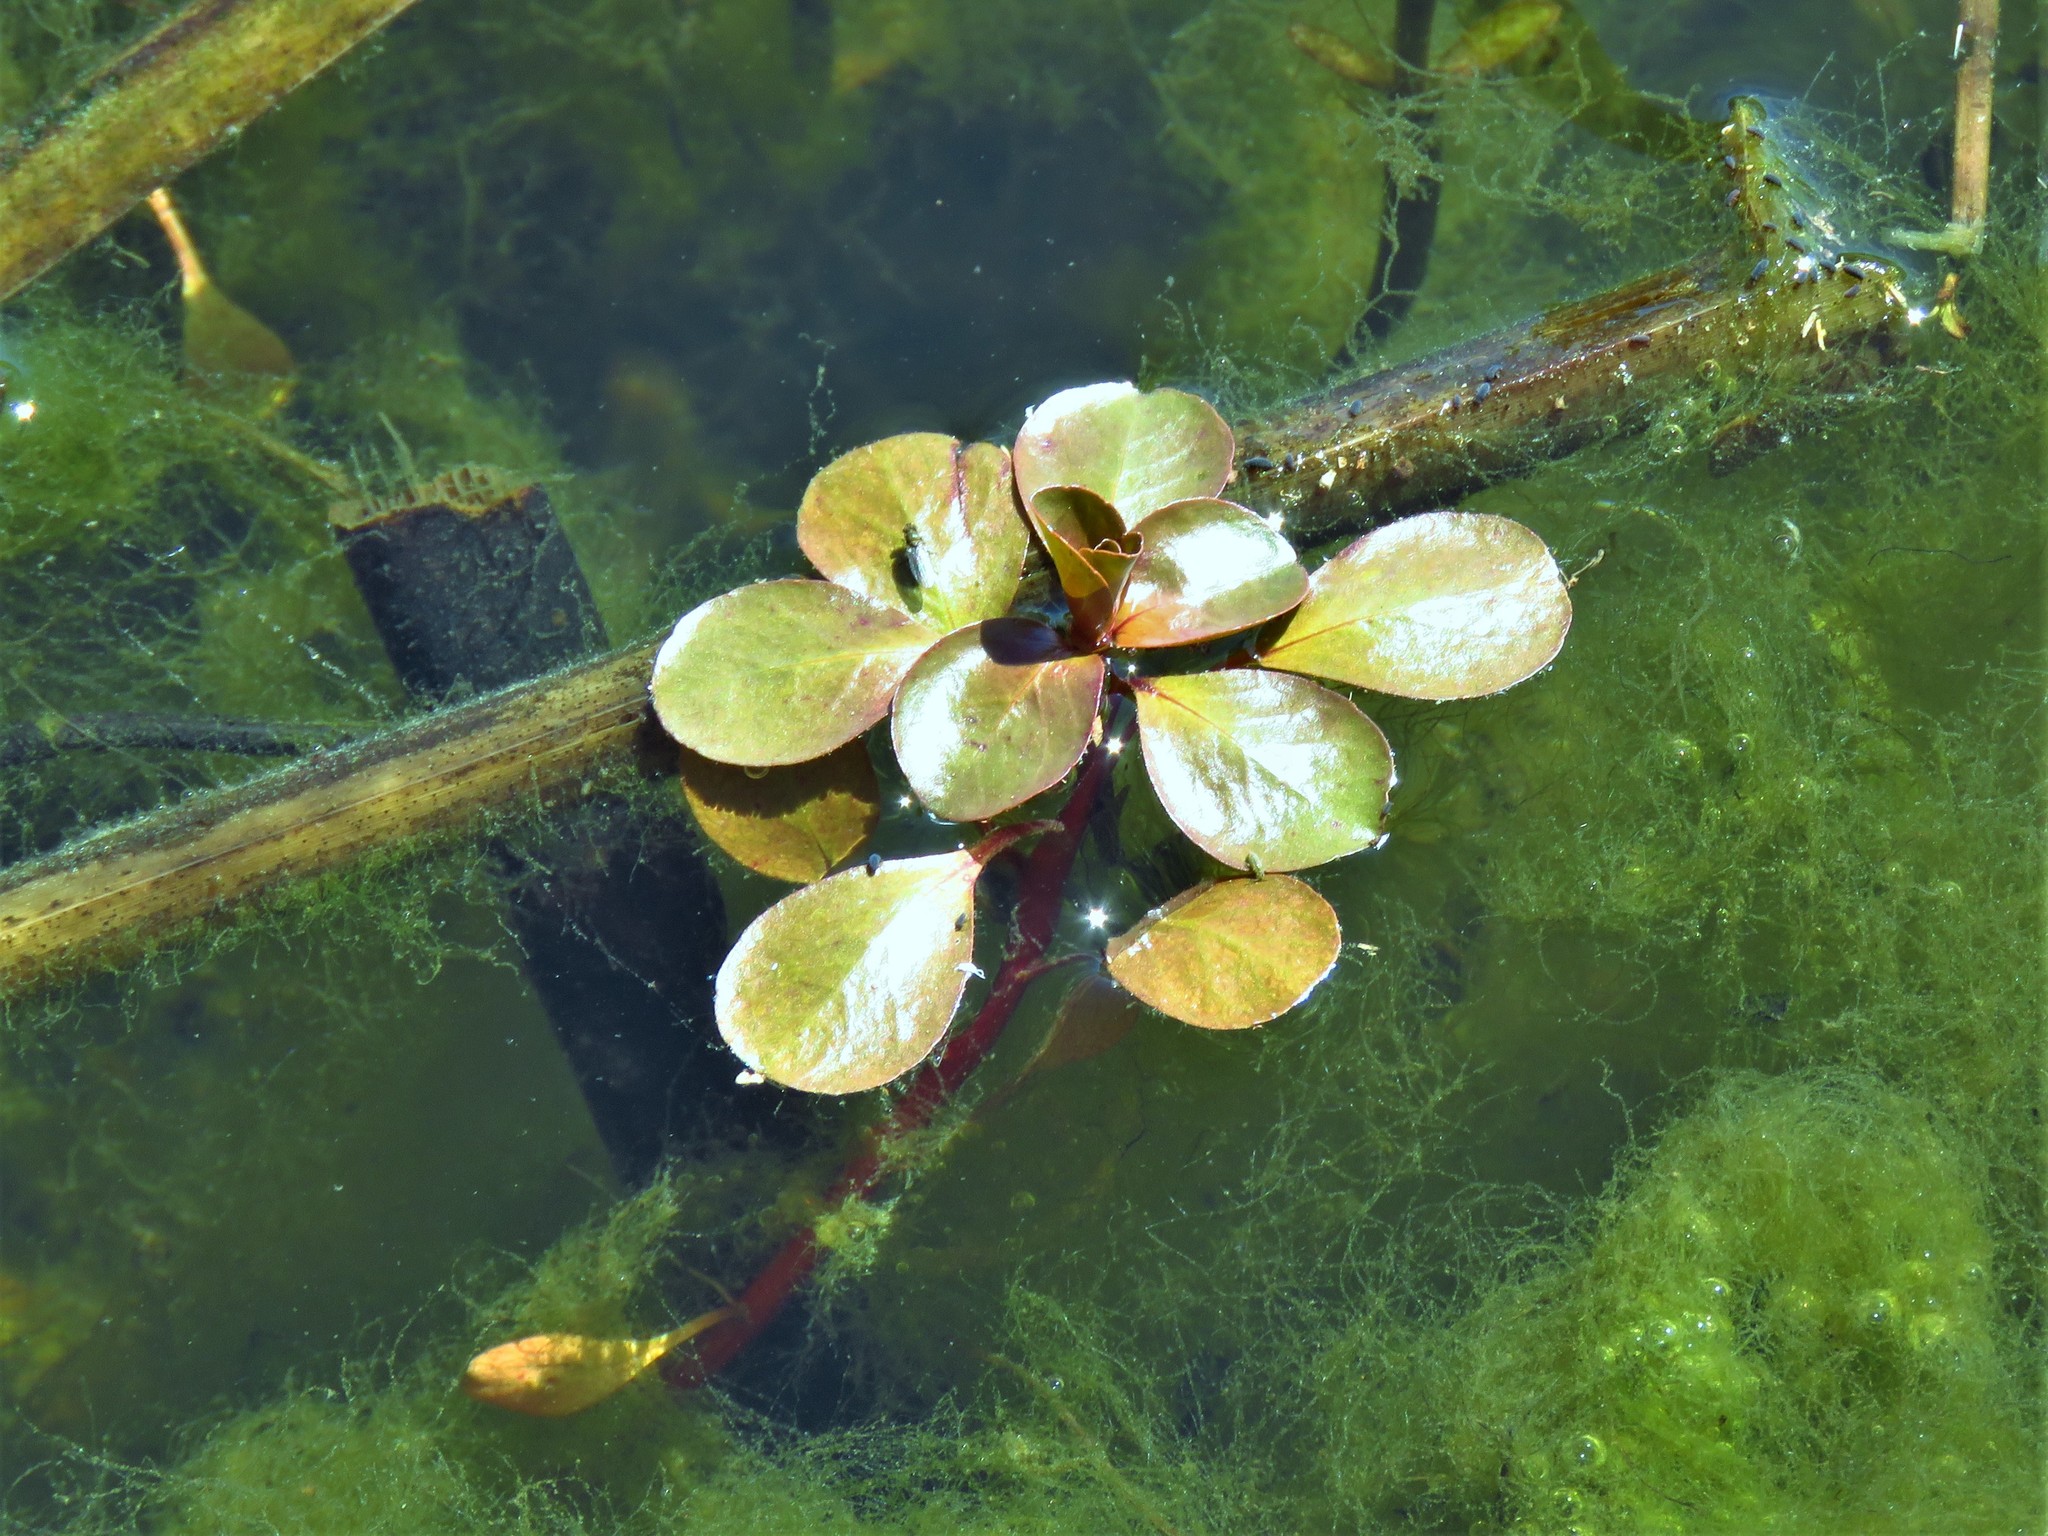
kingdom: Plantae
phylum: Tracheophyta
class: Magnoliopsida
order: Myrtales
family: Onagraceae
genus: Ludwigia
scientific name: Ludwigia peploides
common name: Floating primrose-willow
